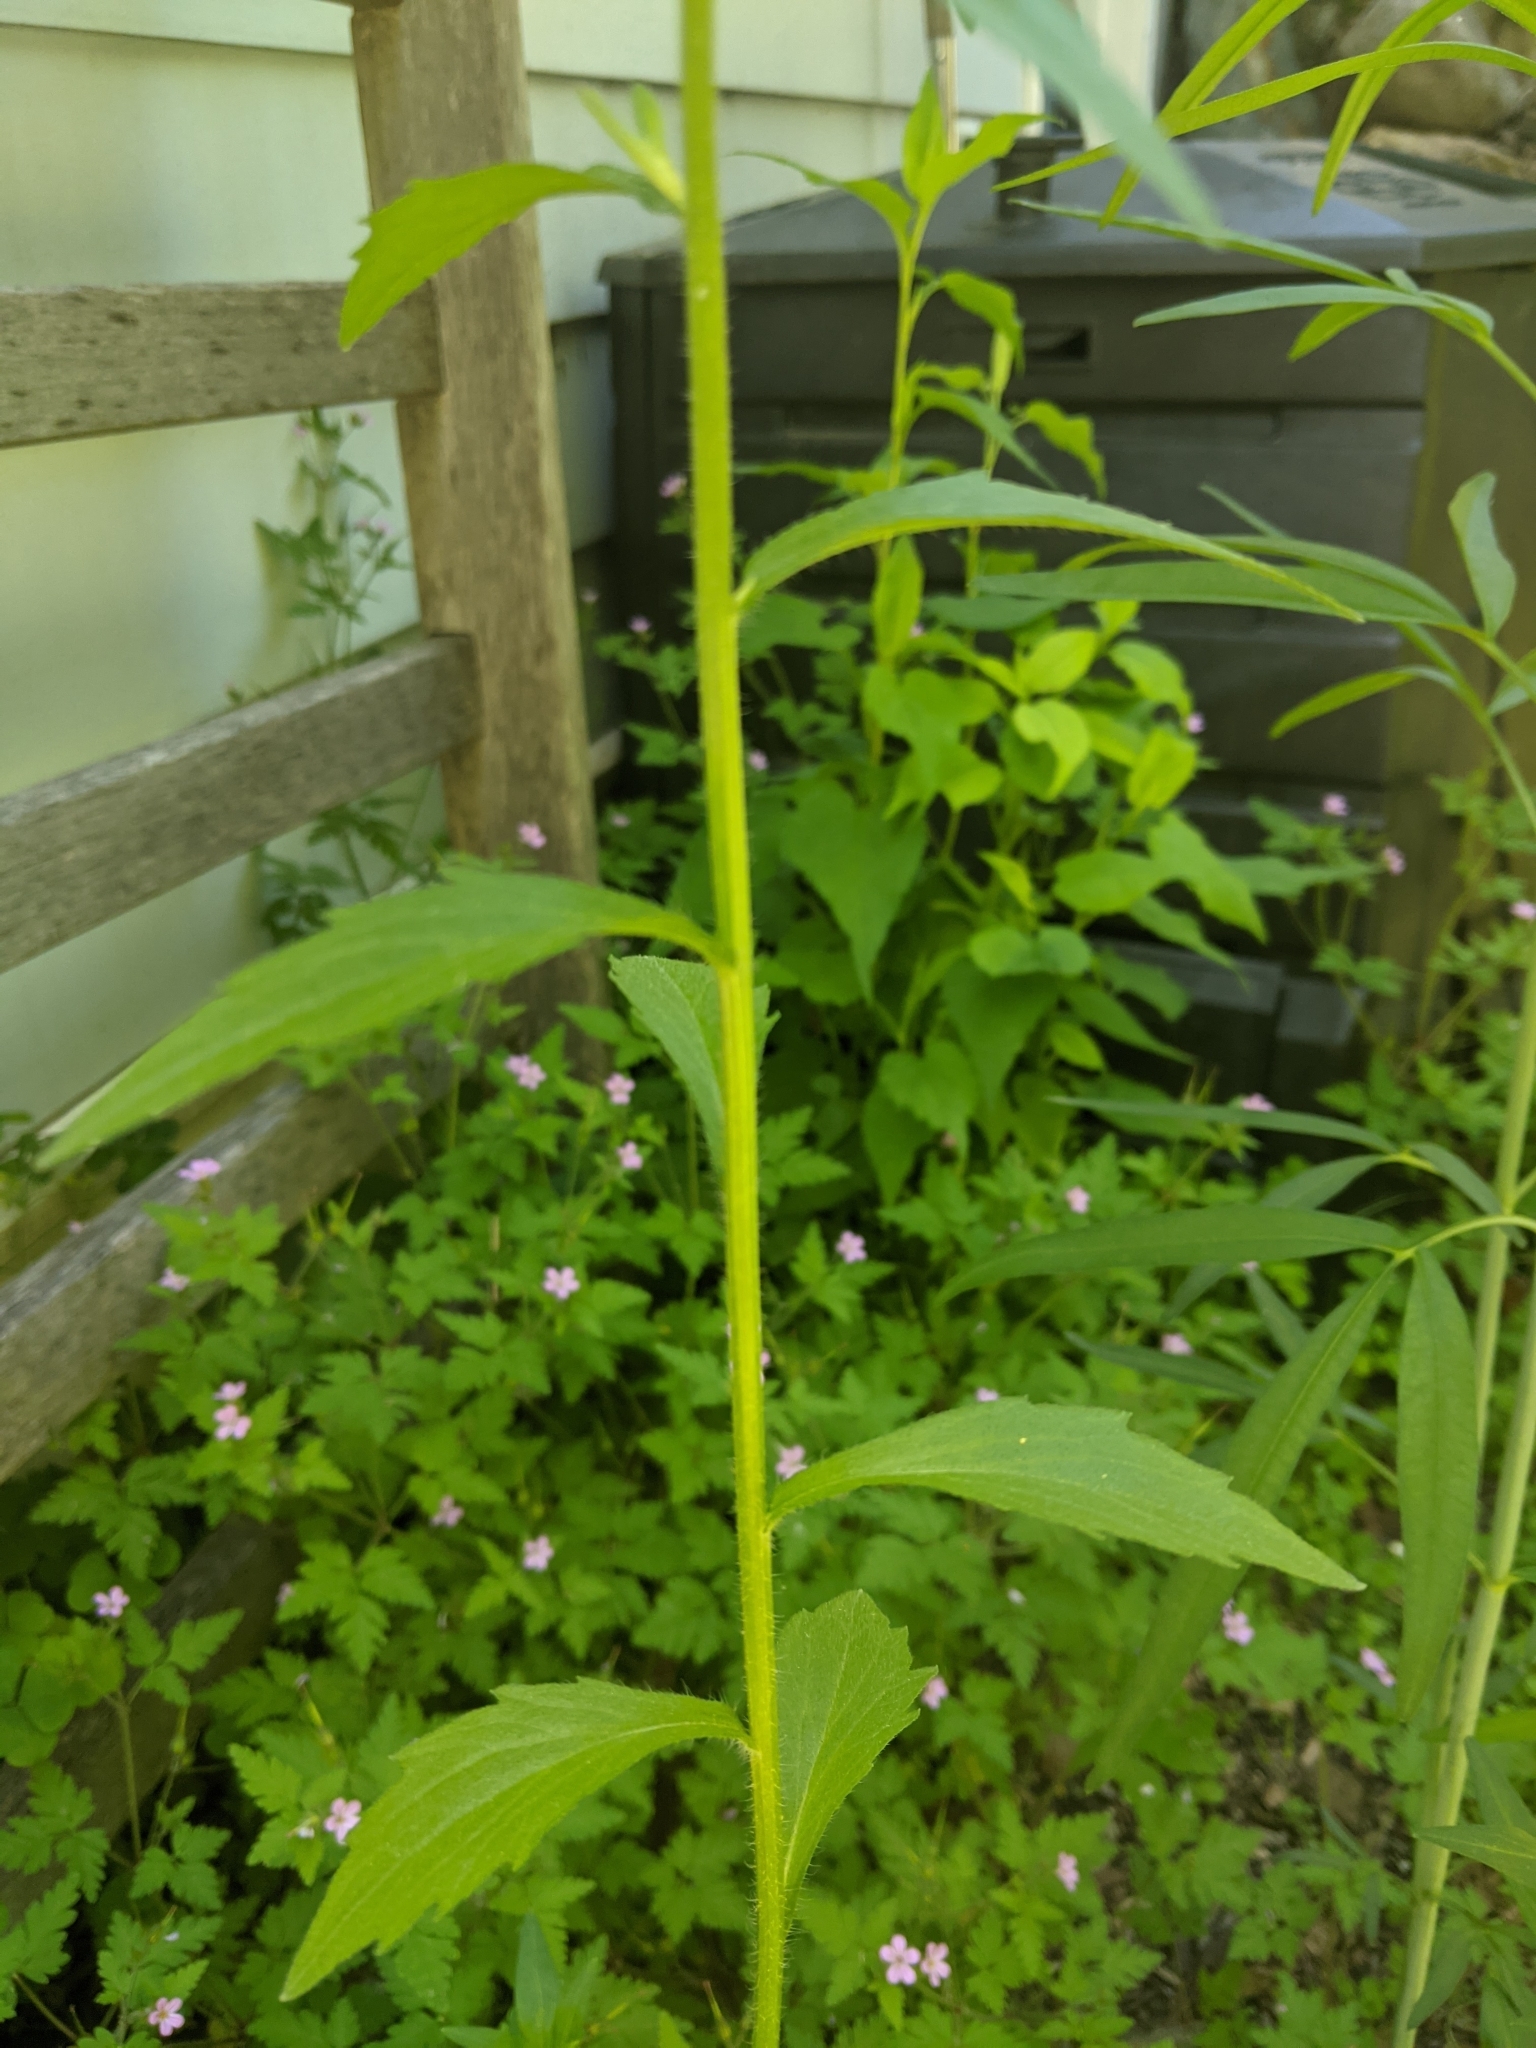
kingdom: Plantae
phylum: Tracheophyta
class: Magnoliopsida
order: Asterales
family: Asteraceae
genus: Erigeron
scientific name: Erigeron annuus
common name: Tall fleabane
